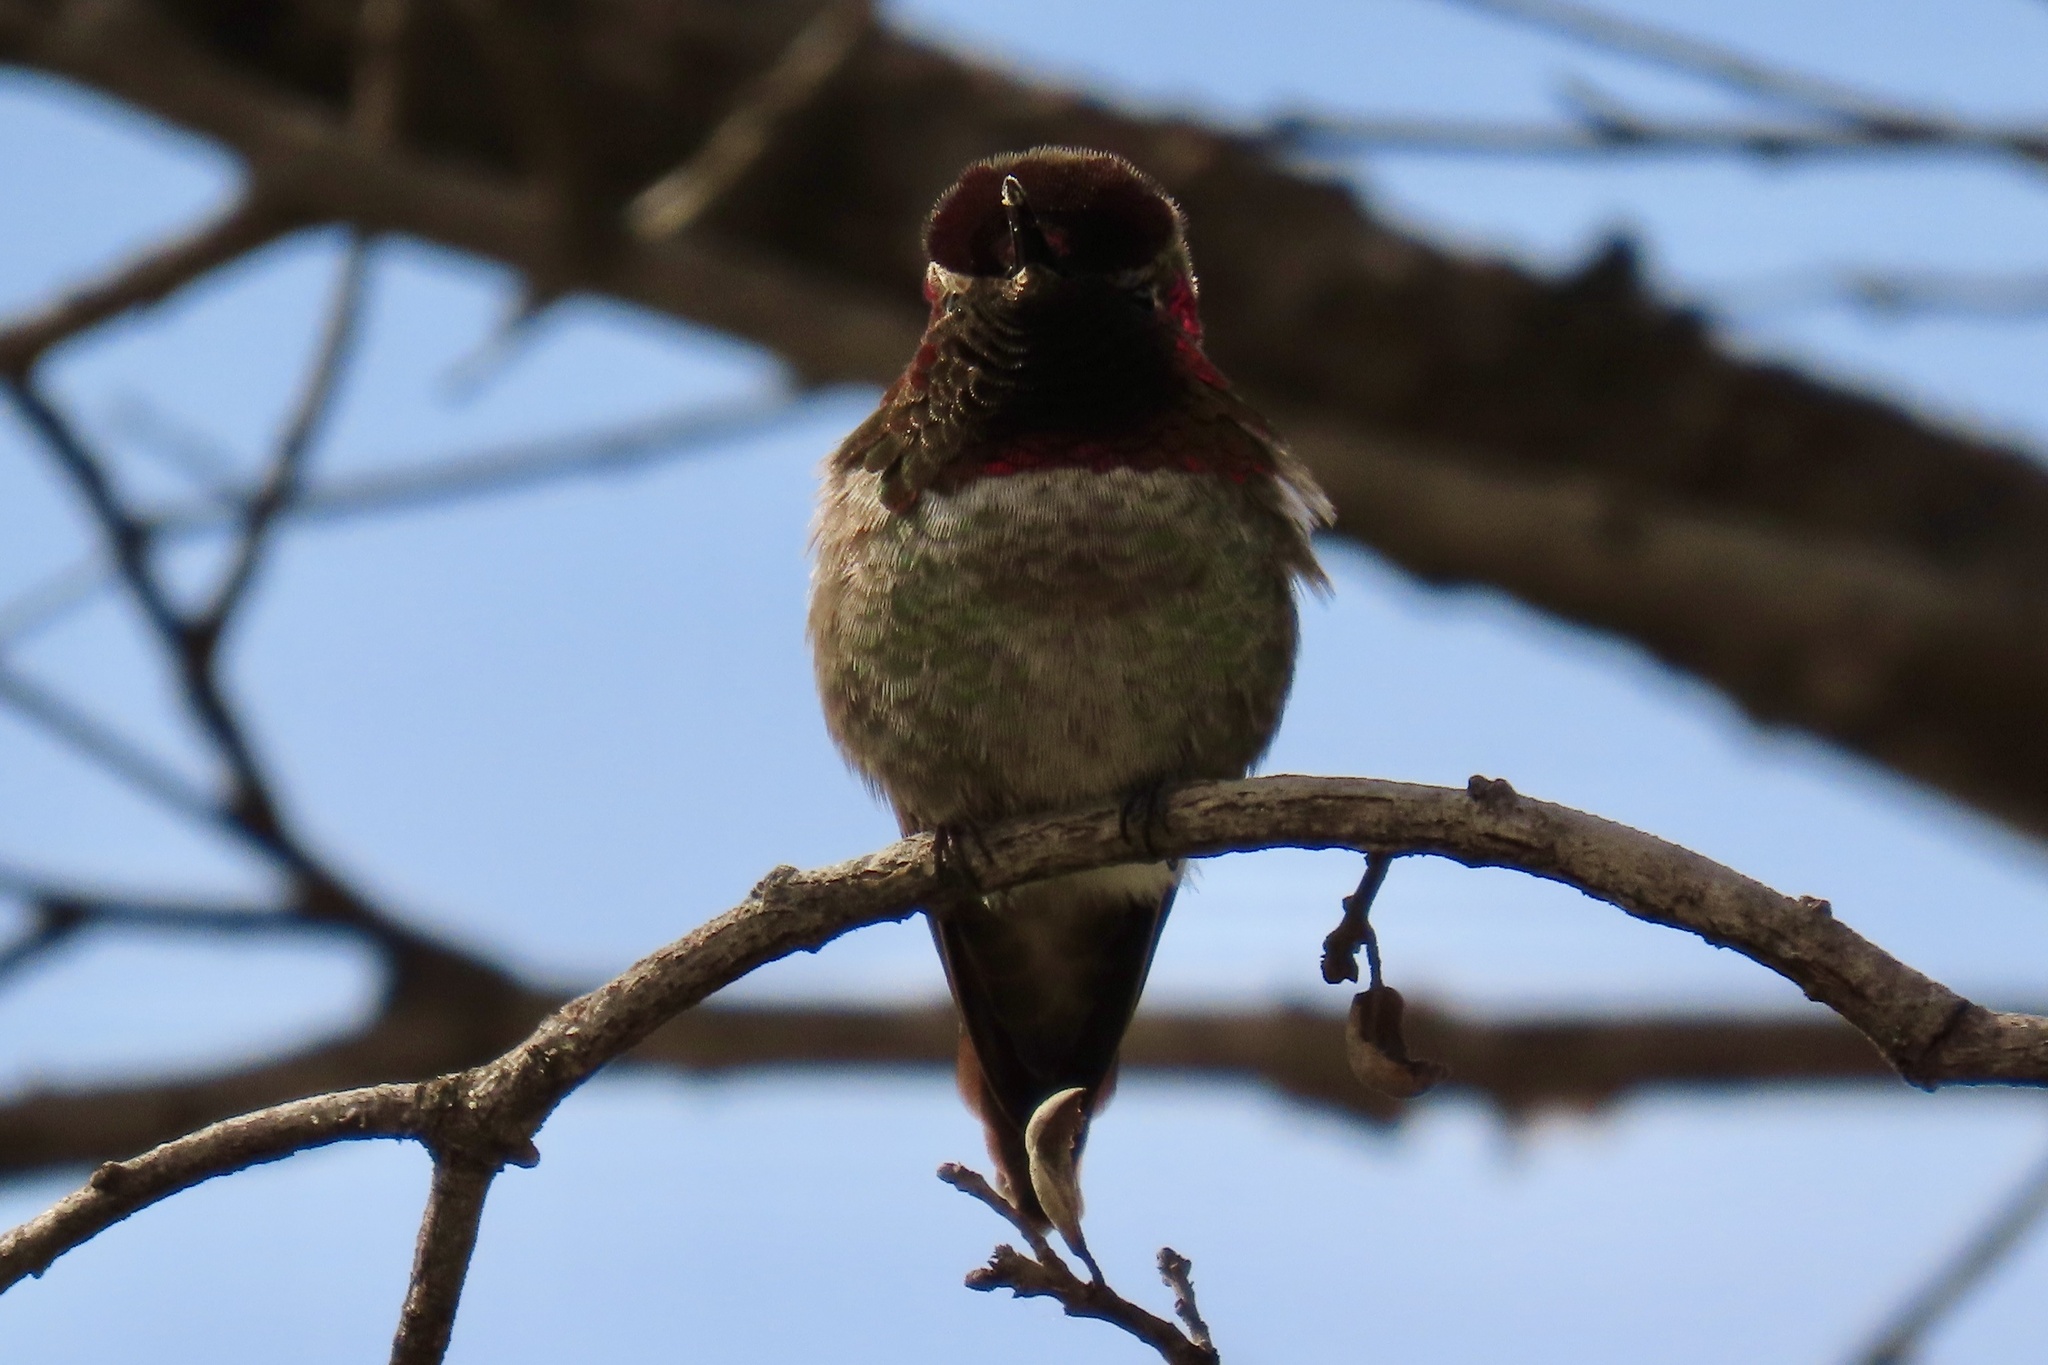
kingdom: Animalia
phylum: Chordata
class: Aves
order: Apodiformes
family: Trochilidae
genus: Calypte
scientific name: Calypte anna
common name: Anna's hummingbird
